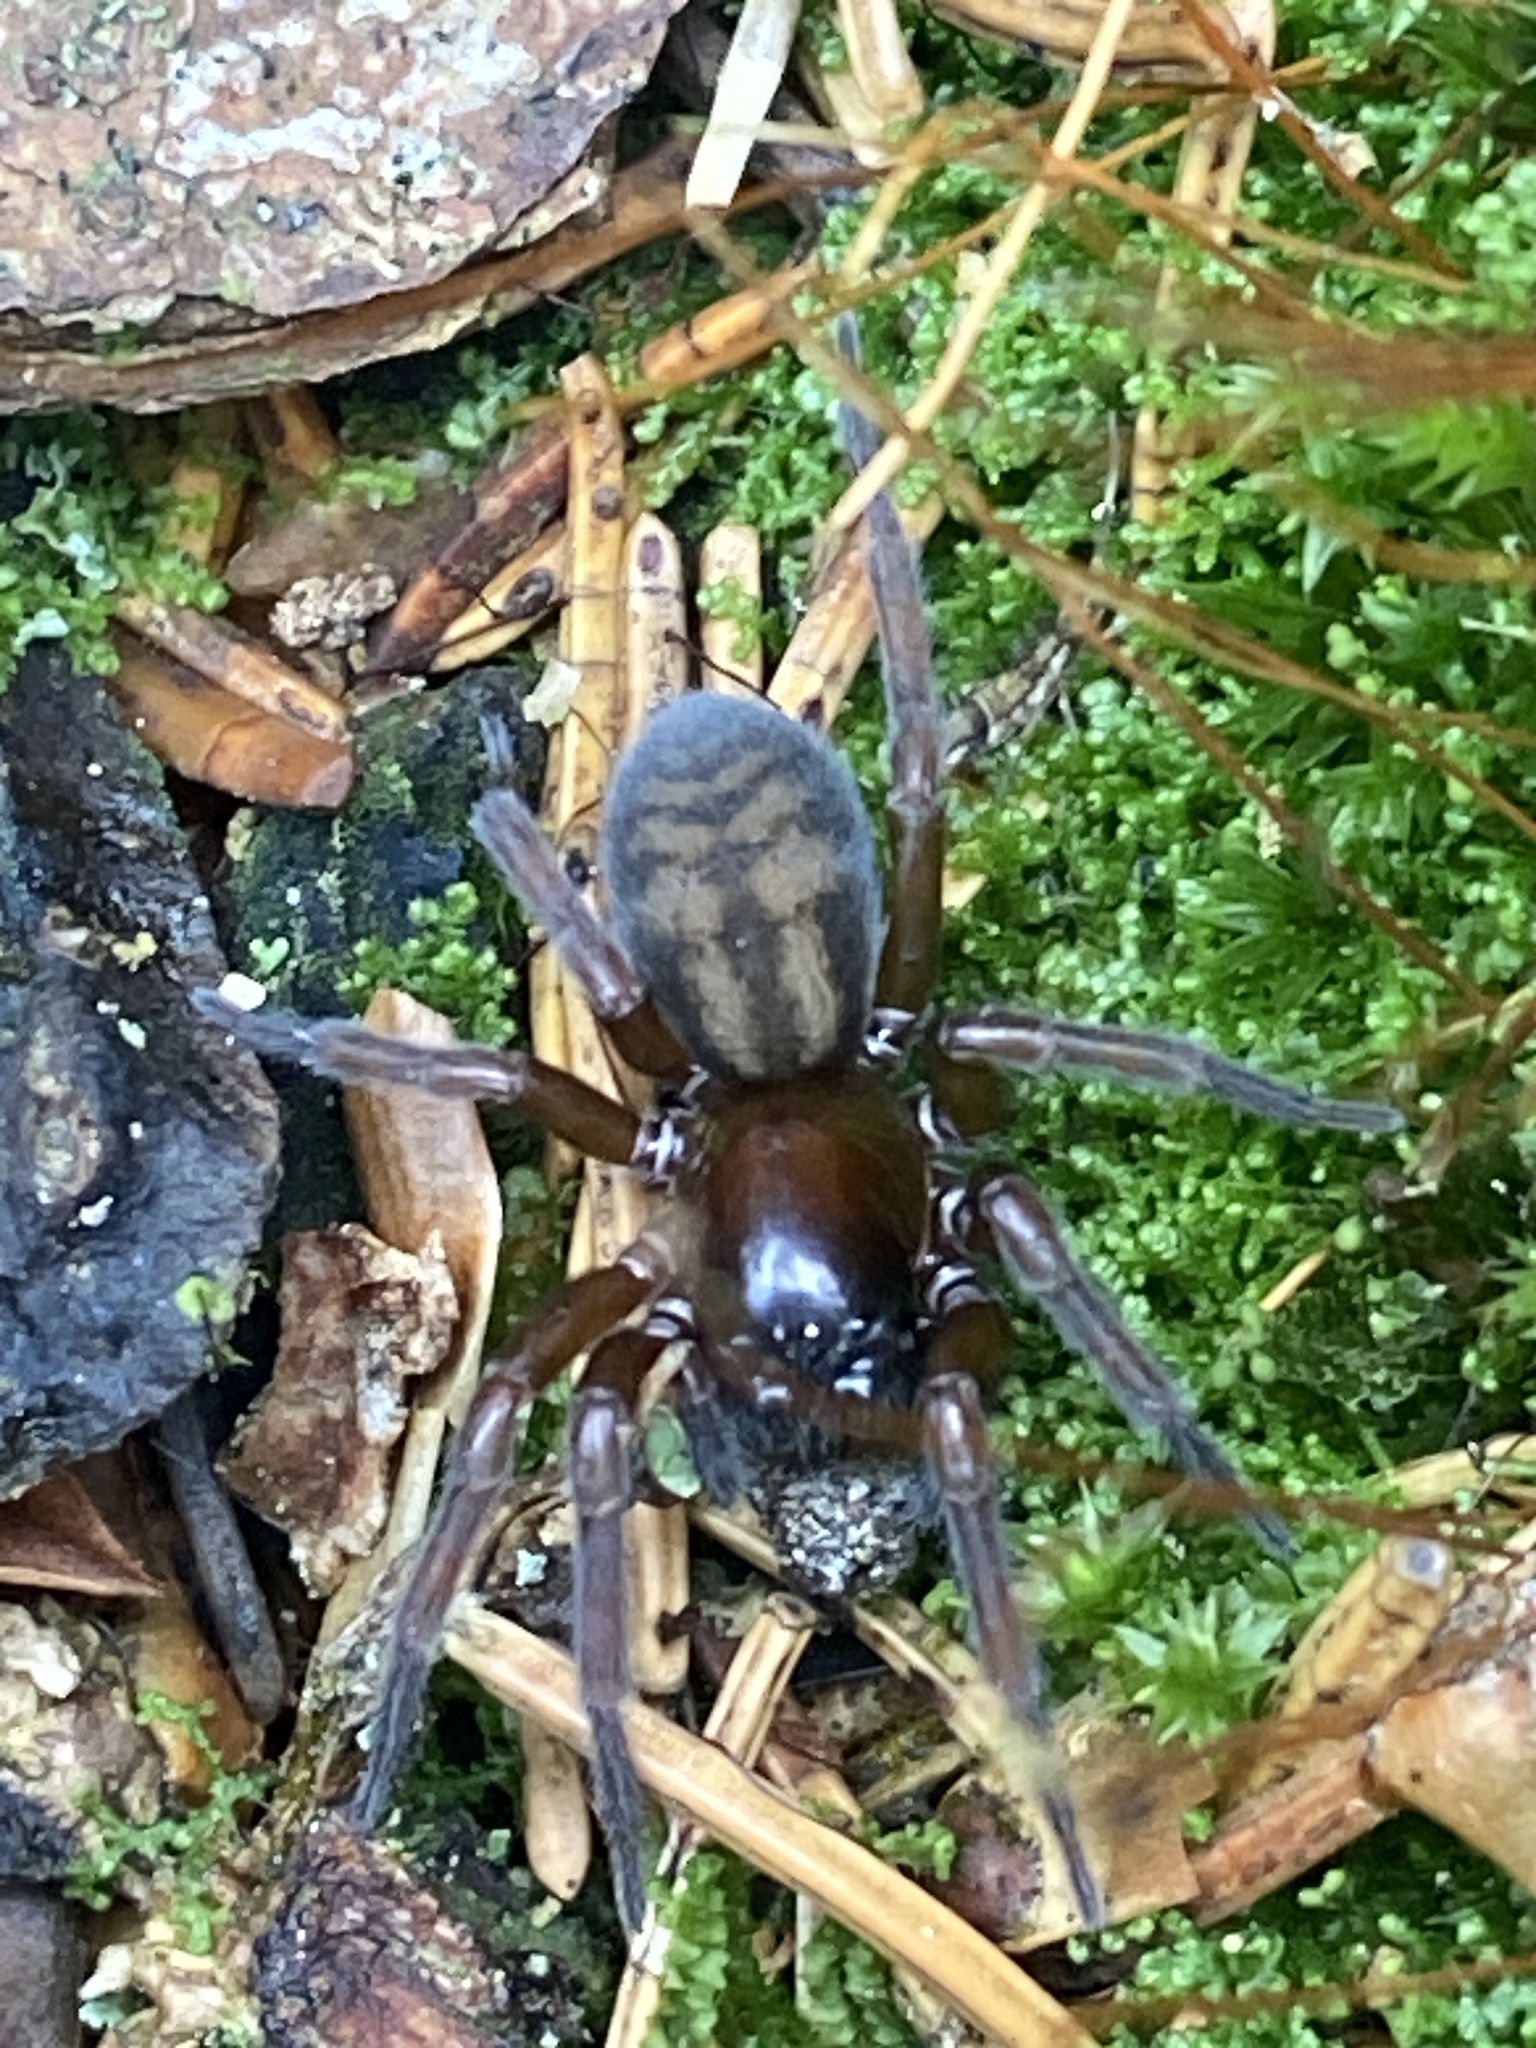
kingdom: Animalia
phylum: Arthropoda
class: Arachnida
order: Araneae
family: Amaurobiidae
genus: Callobius
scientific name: Callobius claustrarius
